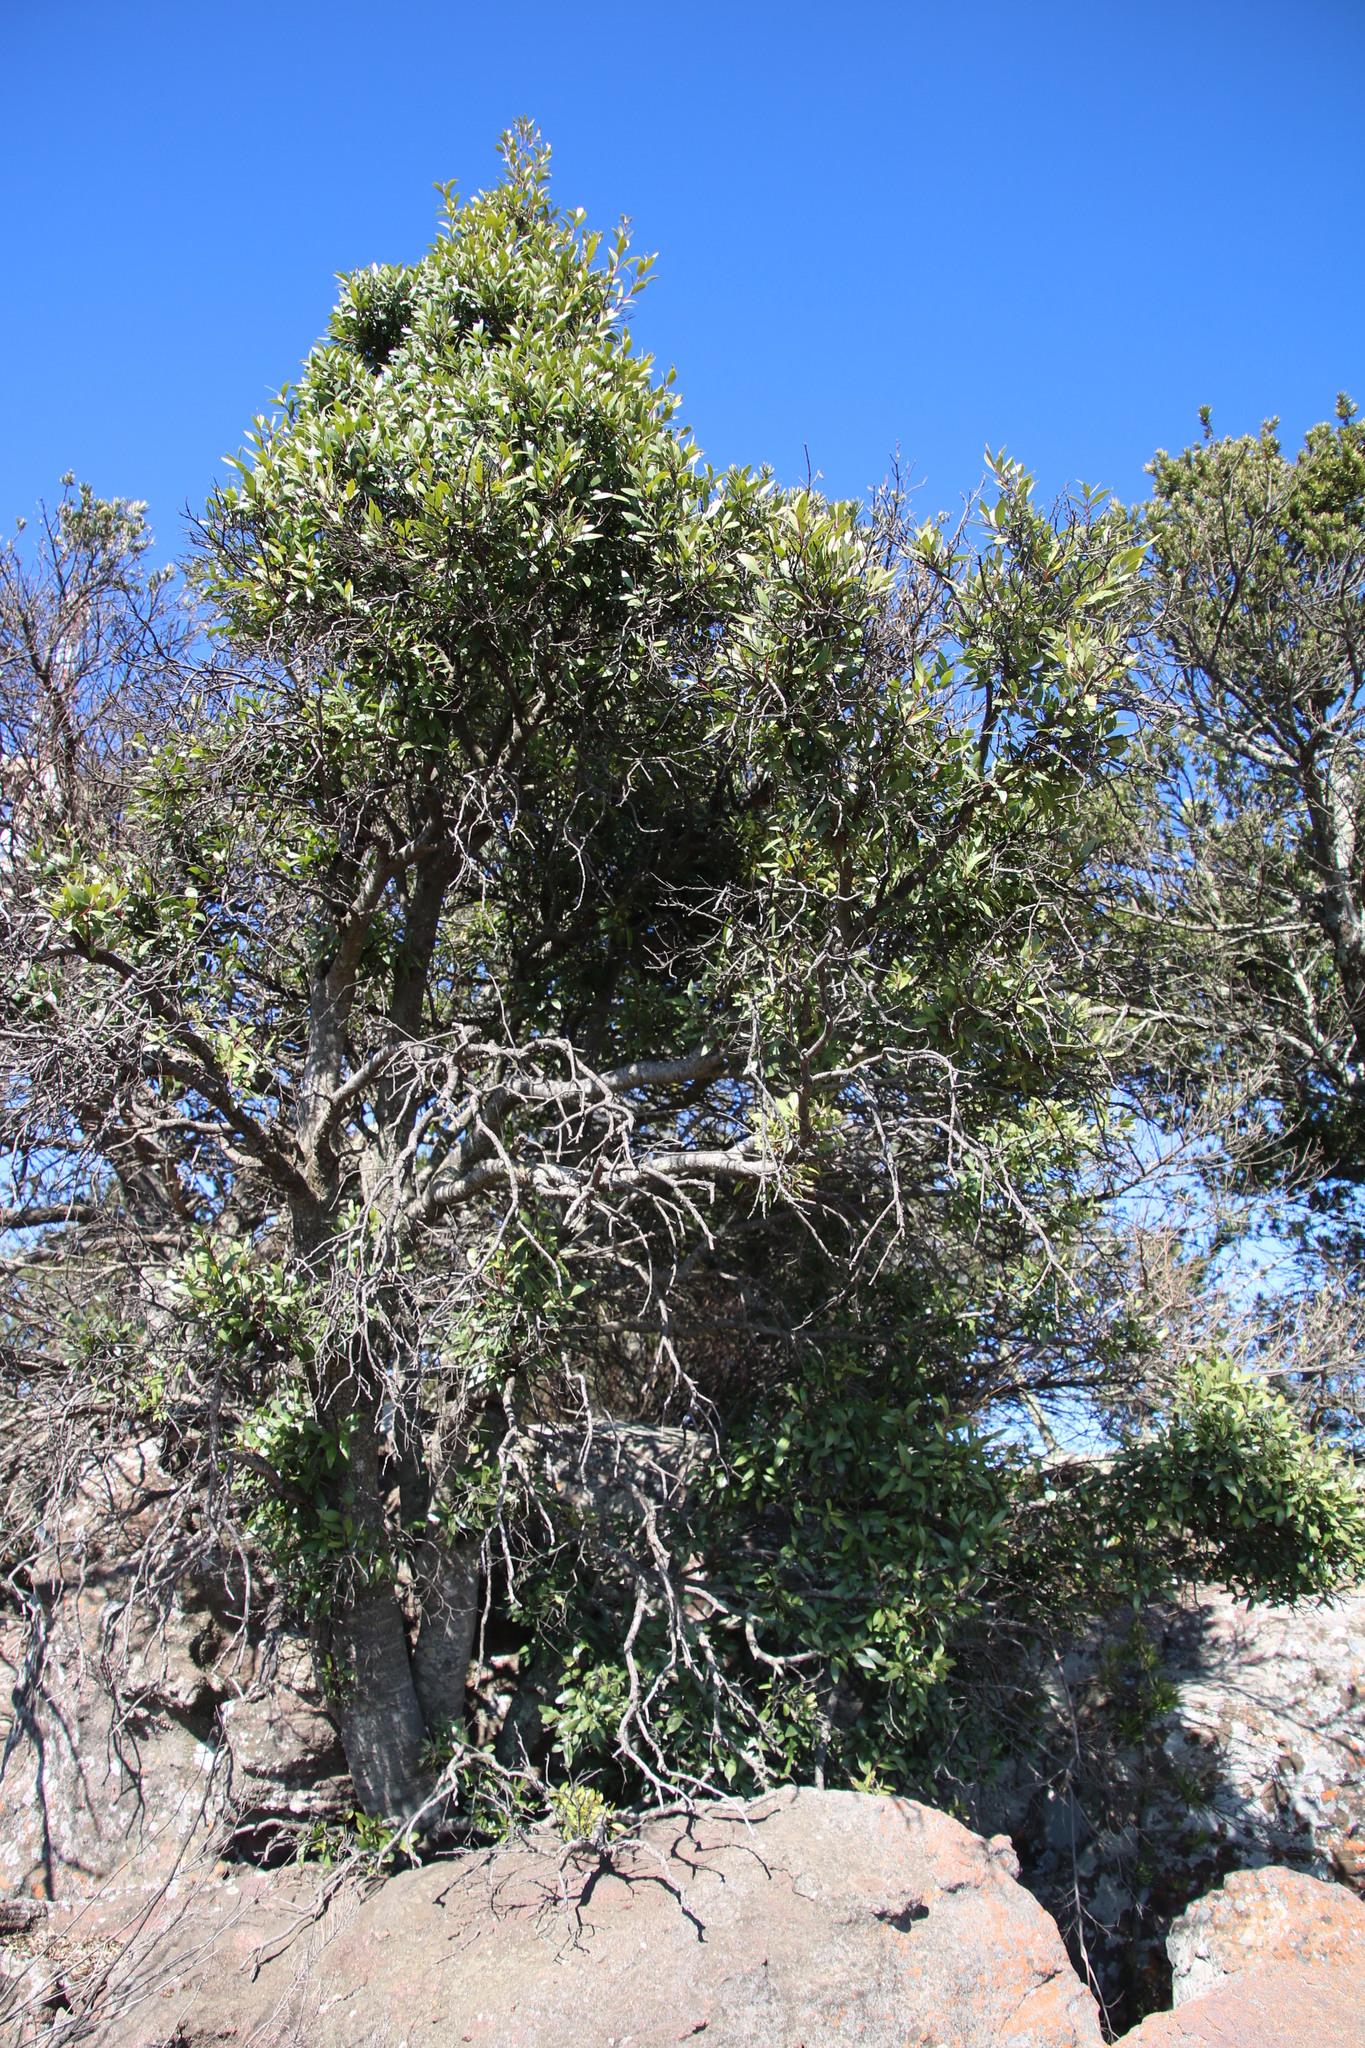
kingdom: Plantae
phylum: Tracheophyta
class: Magnoliopsida
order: Celastrales
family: Celastraceae
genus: Pterocelastrus
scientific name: Pterocelastrus echinatus
